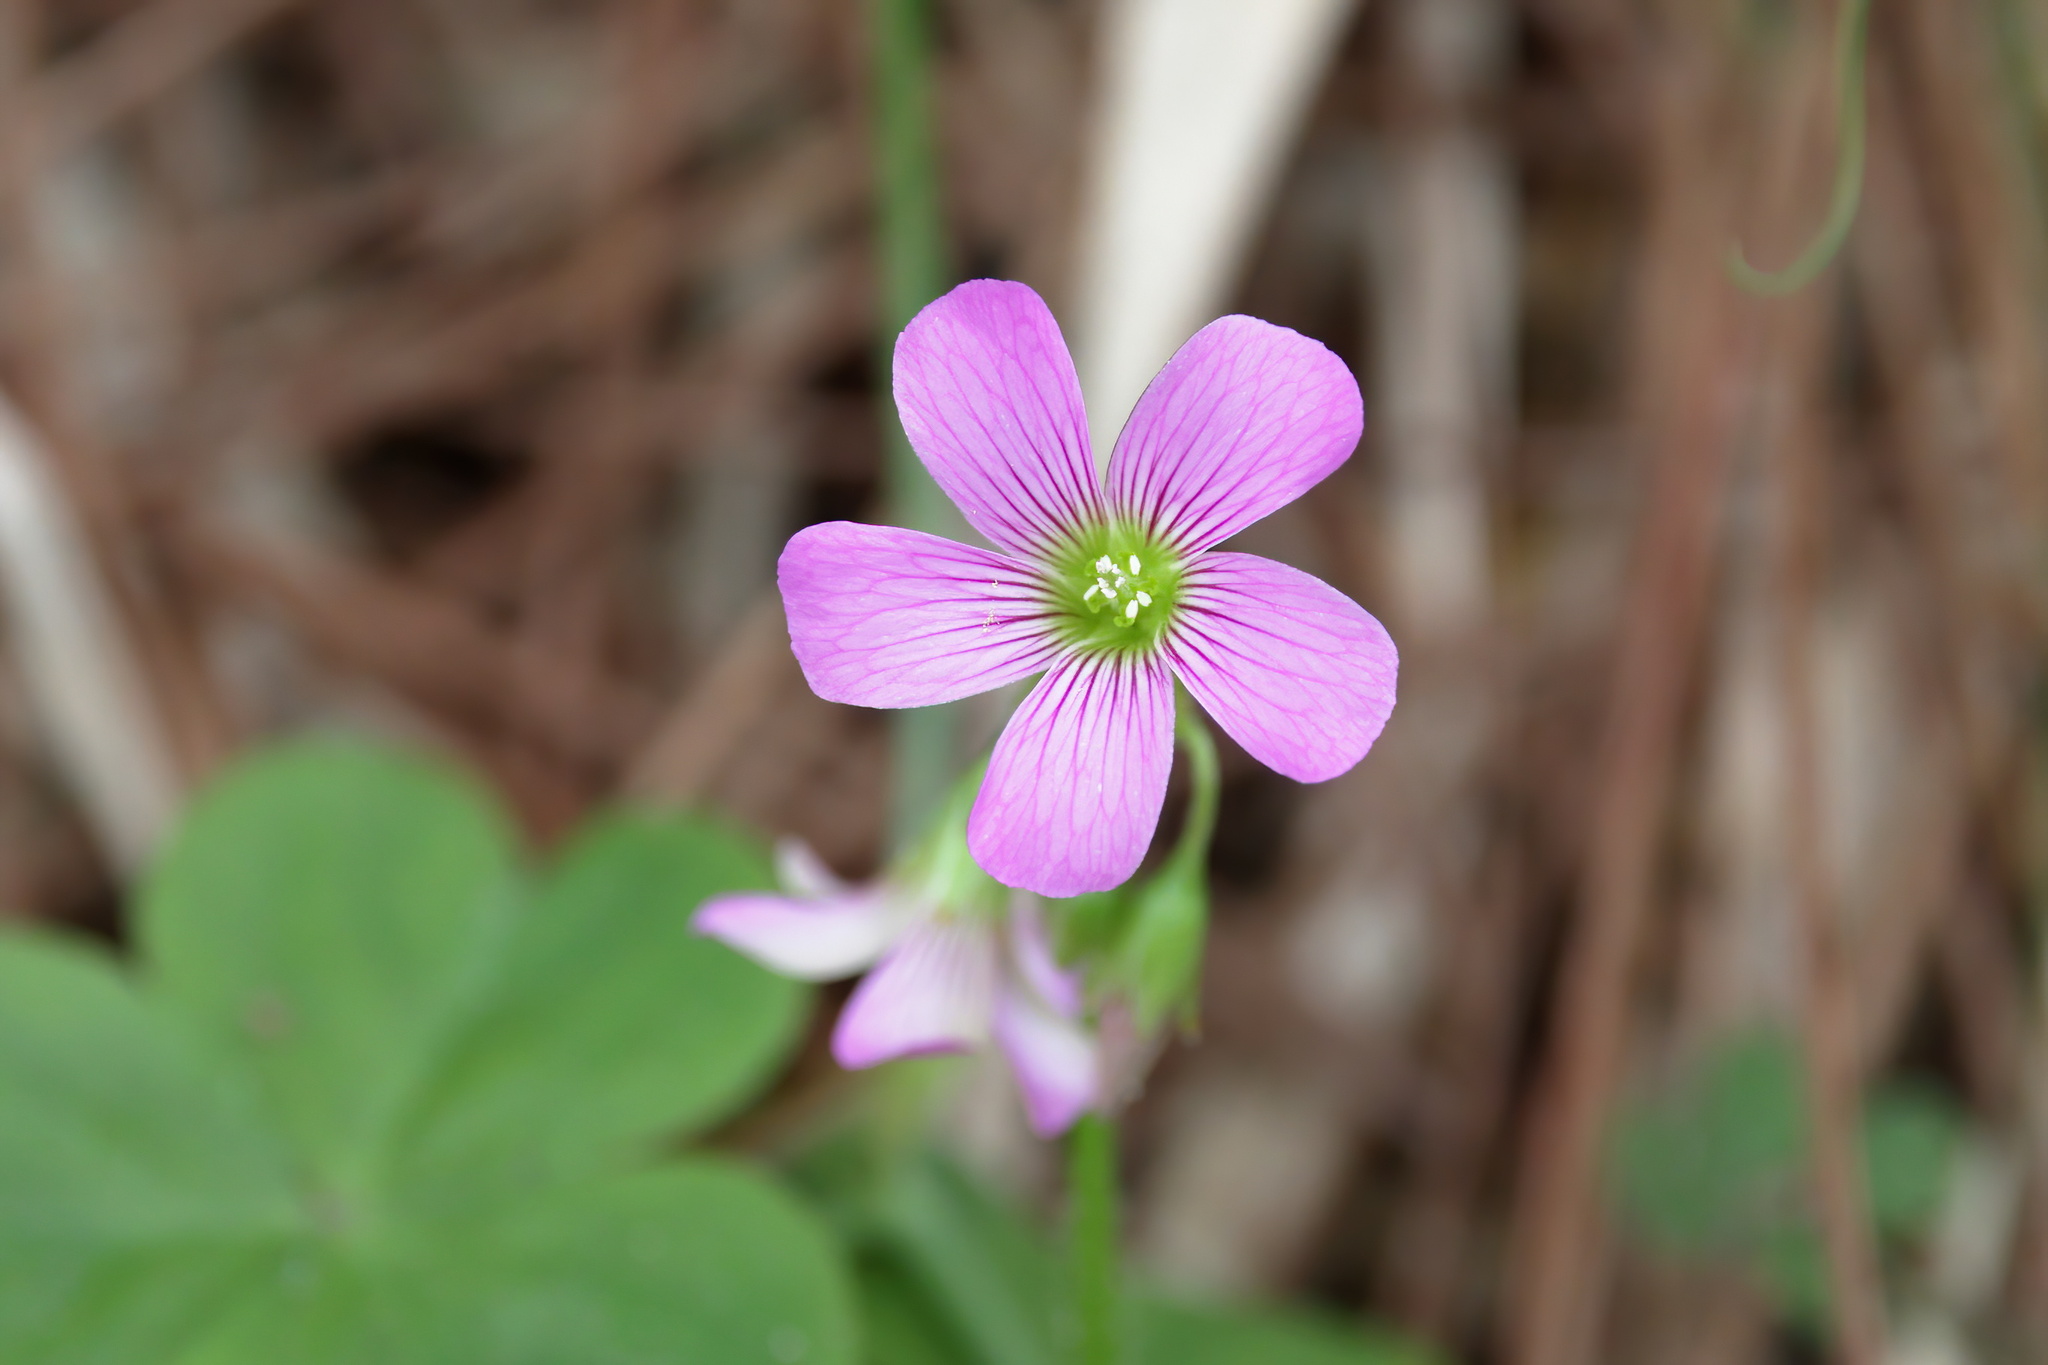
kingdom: Plantae
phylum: Tracheophyta
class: Magnoliopsida
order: Oxalidales
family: Oxalidaceae
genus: Oxalis
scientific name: Oxalis debilis
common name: Large-flowered pink-sorrel
